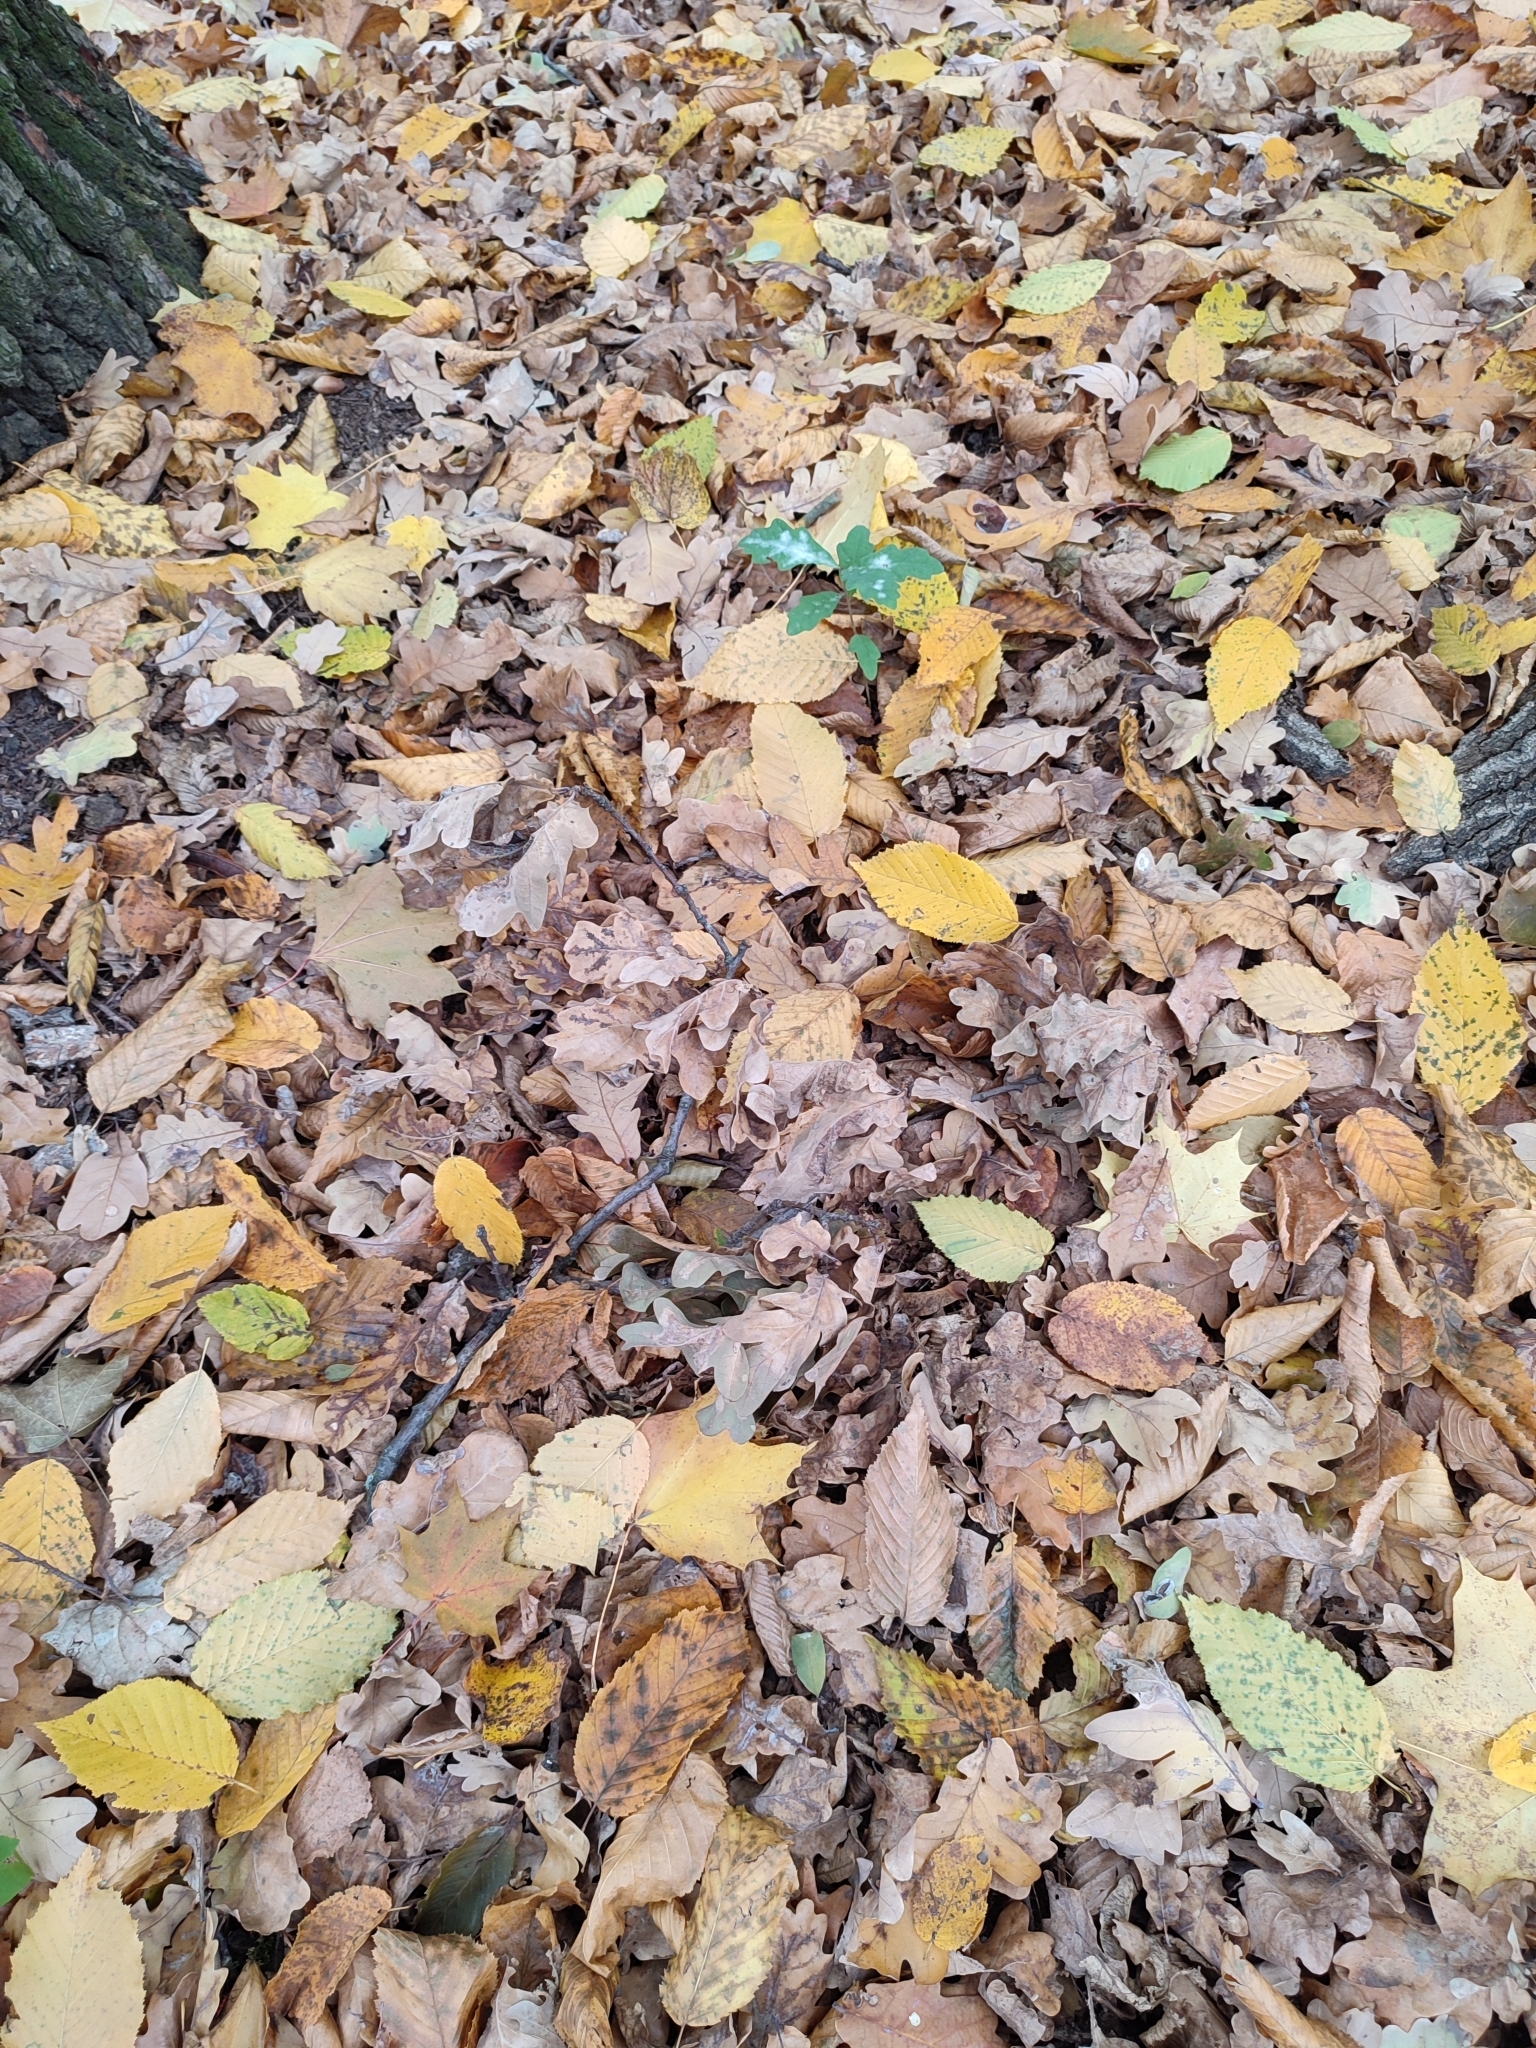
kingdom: Plantae
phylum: Tracheophyta
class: Magnoliopsida
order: Fagales
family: Fagaceae
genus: Quercus
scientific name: Quercus robur
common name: Pedunculate oak
